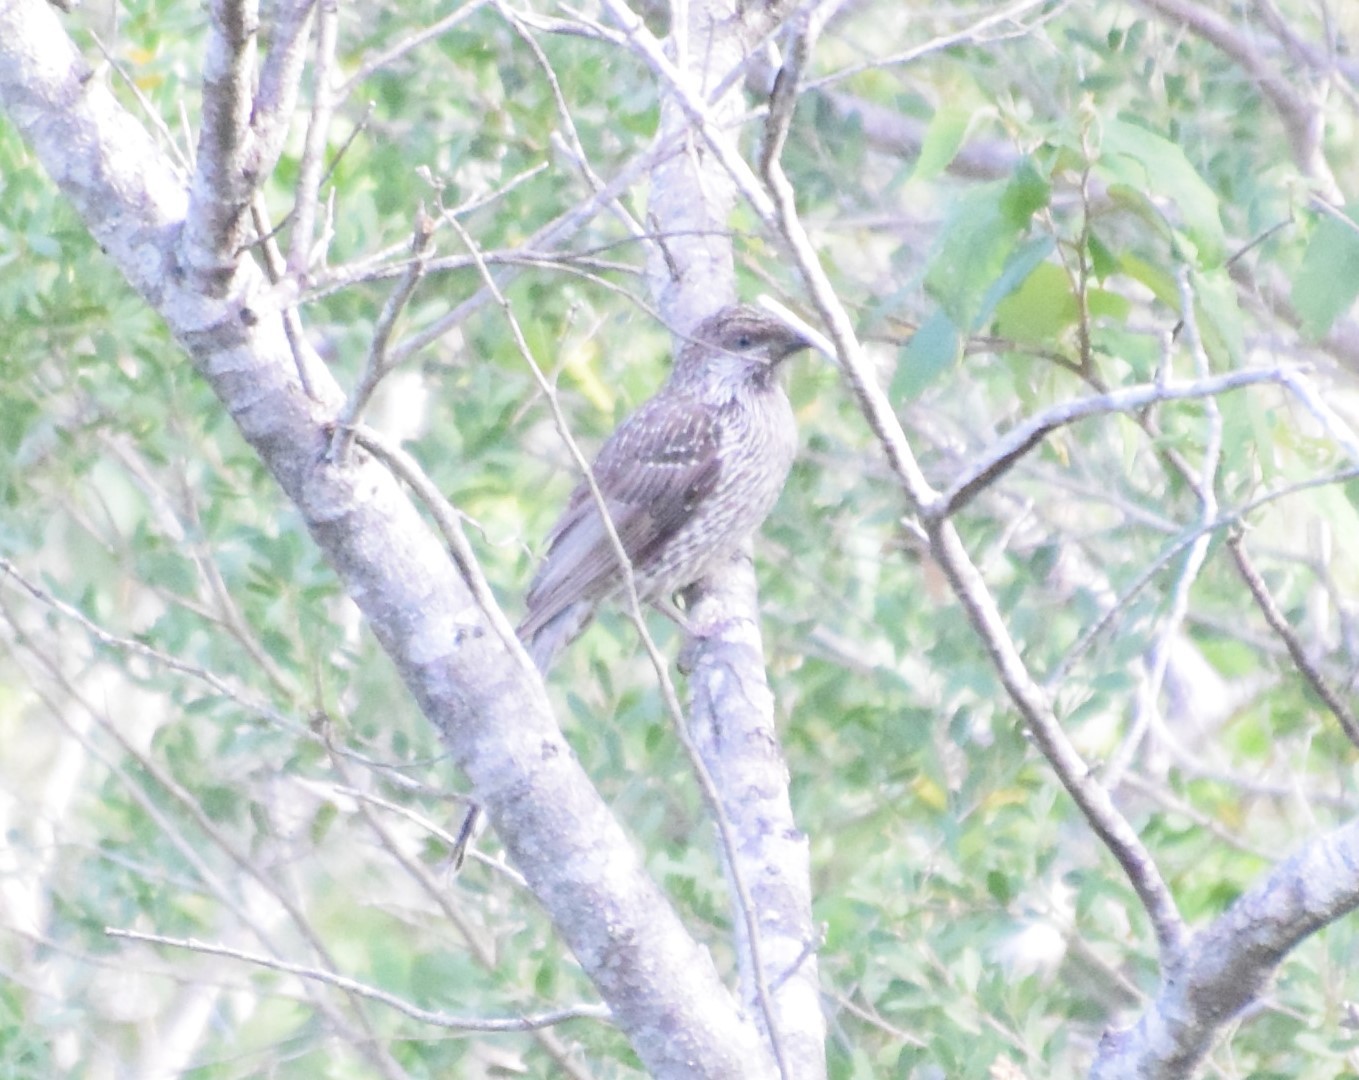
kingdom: Animalia
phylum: Chordata
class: Aves
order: Passeriformes
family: Meliphagidae
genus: Anthochaera
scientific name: Anthochaera chrysoptera
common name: Little wattlebird
